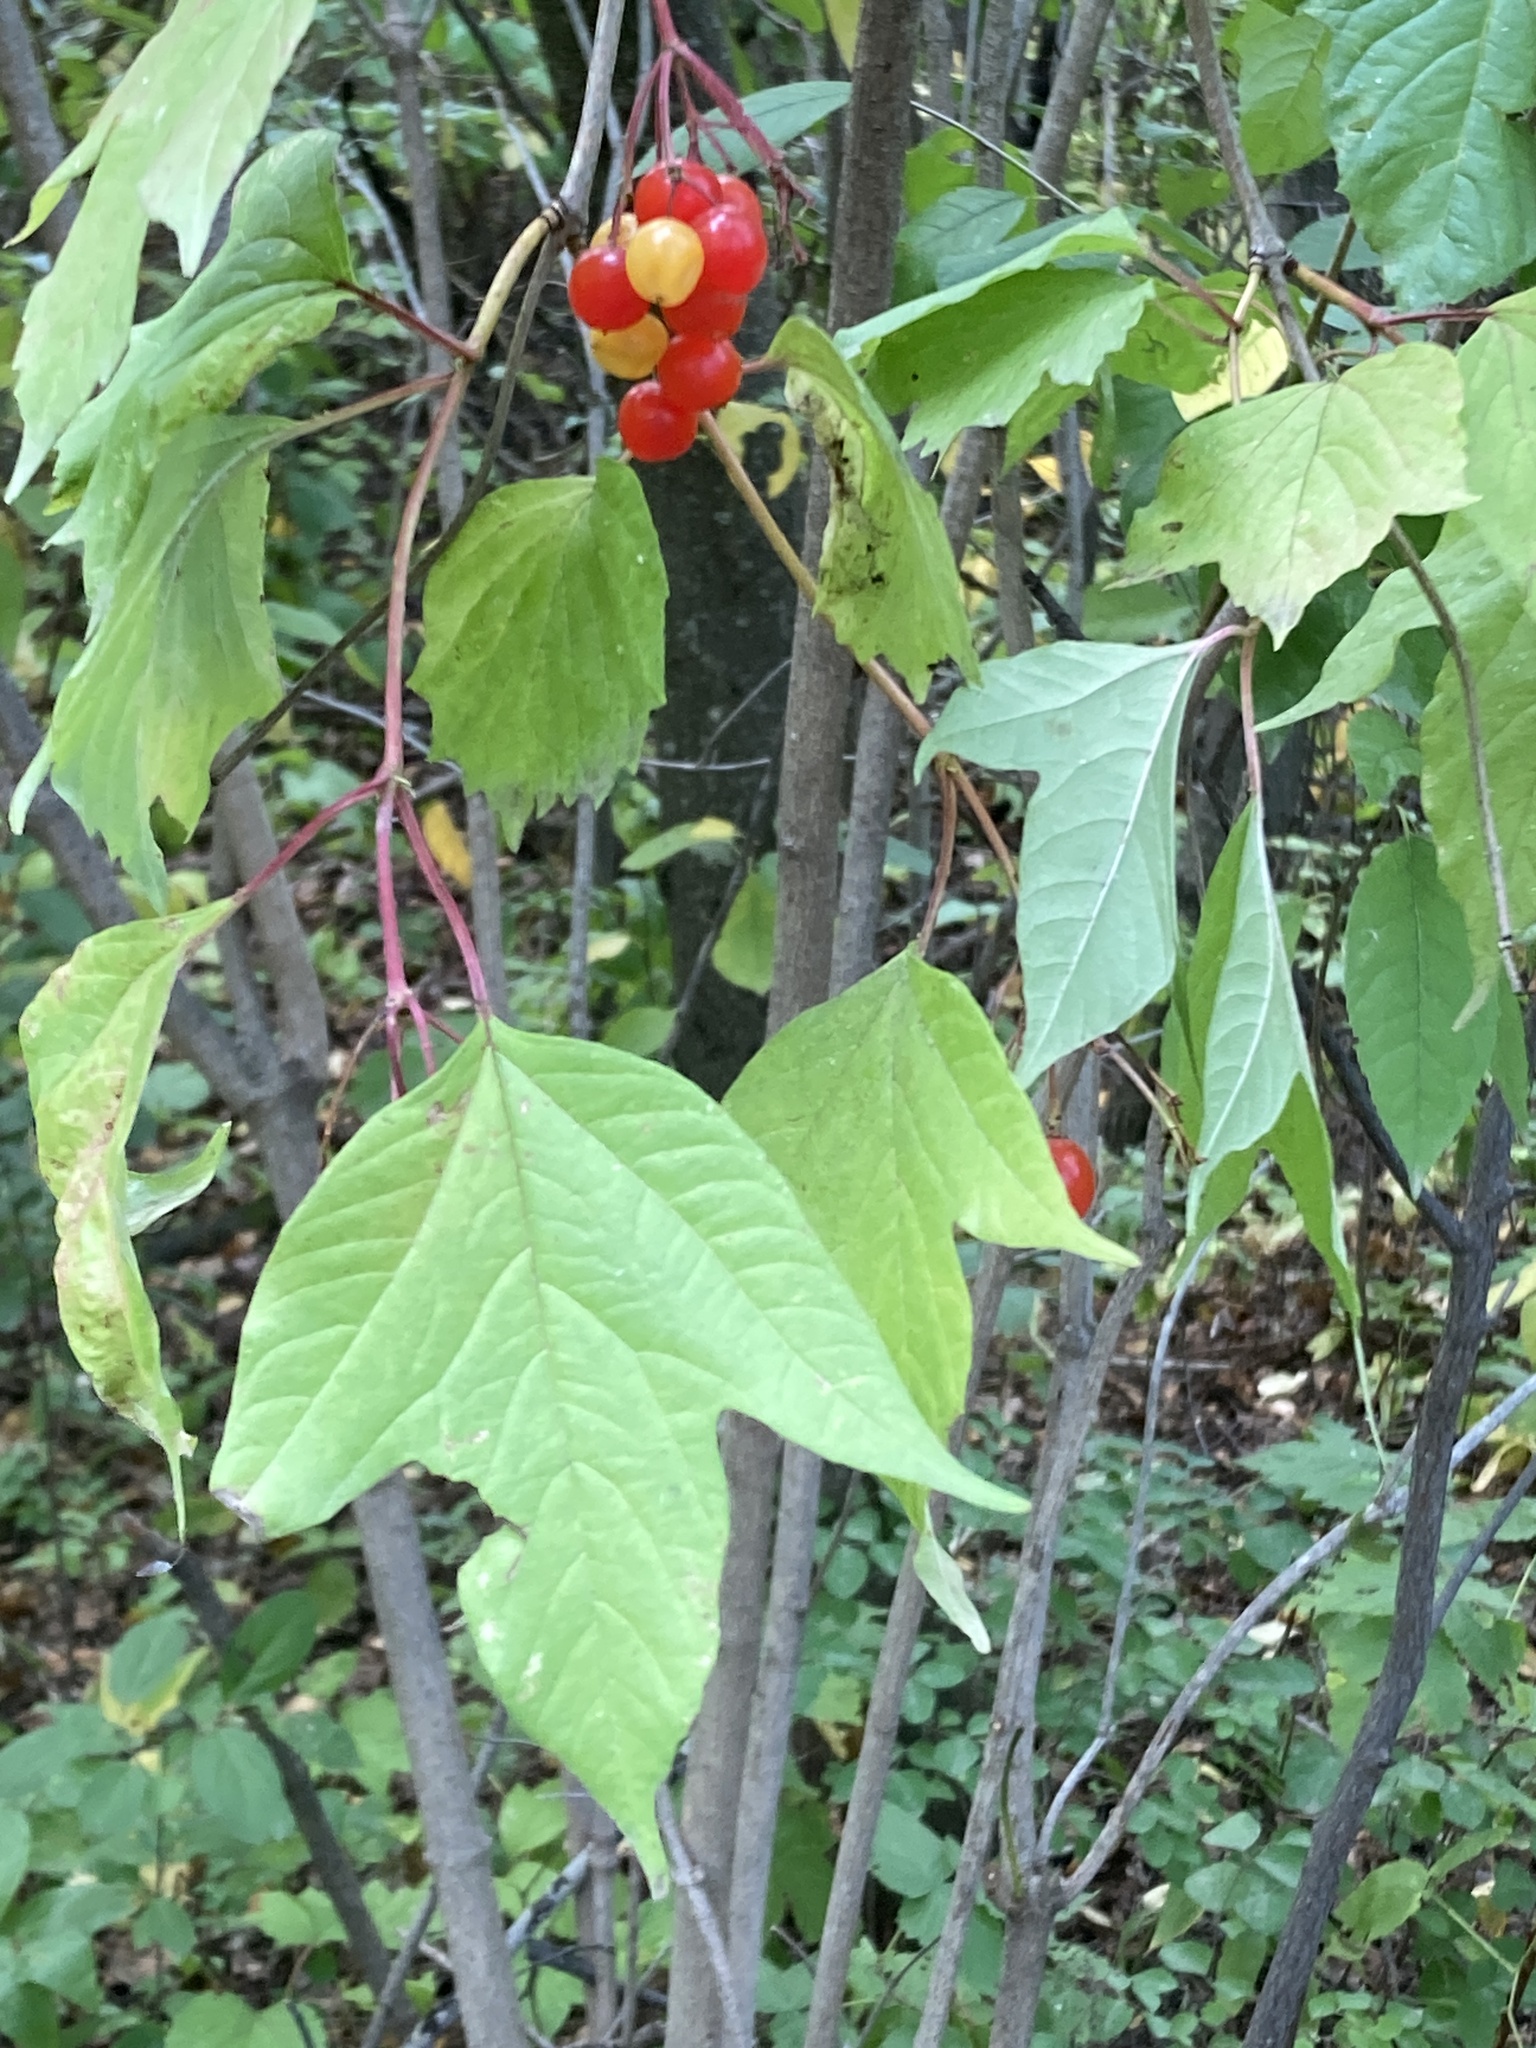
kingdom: Plantae
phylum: Tracheophyta
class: Magnoliopsida
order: Dipsacales
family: Viburnaceae
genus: Viburnum
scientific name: Viburnum opulus
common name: Guelder-rose
